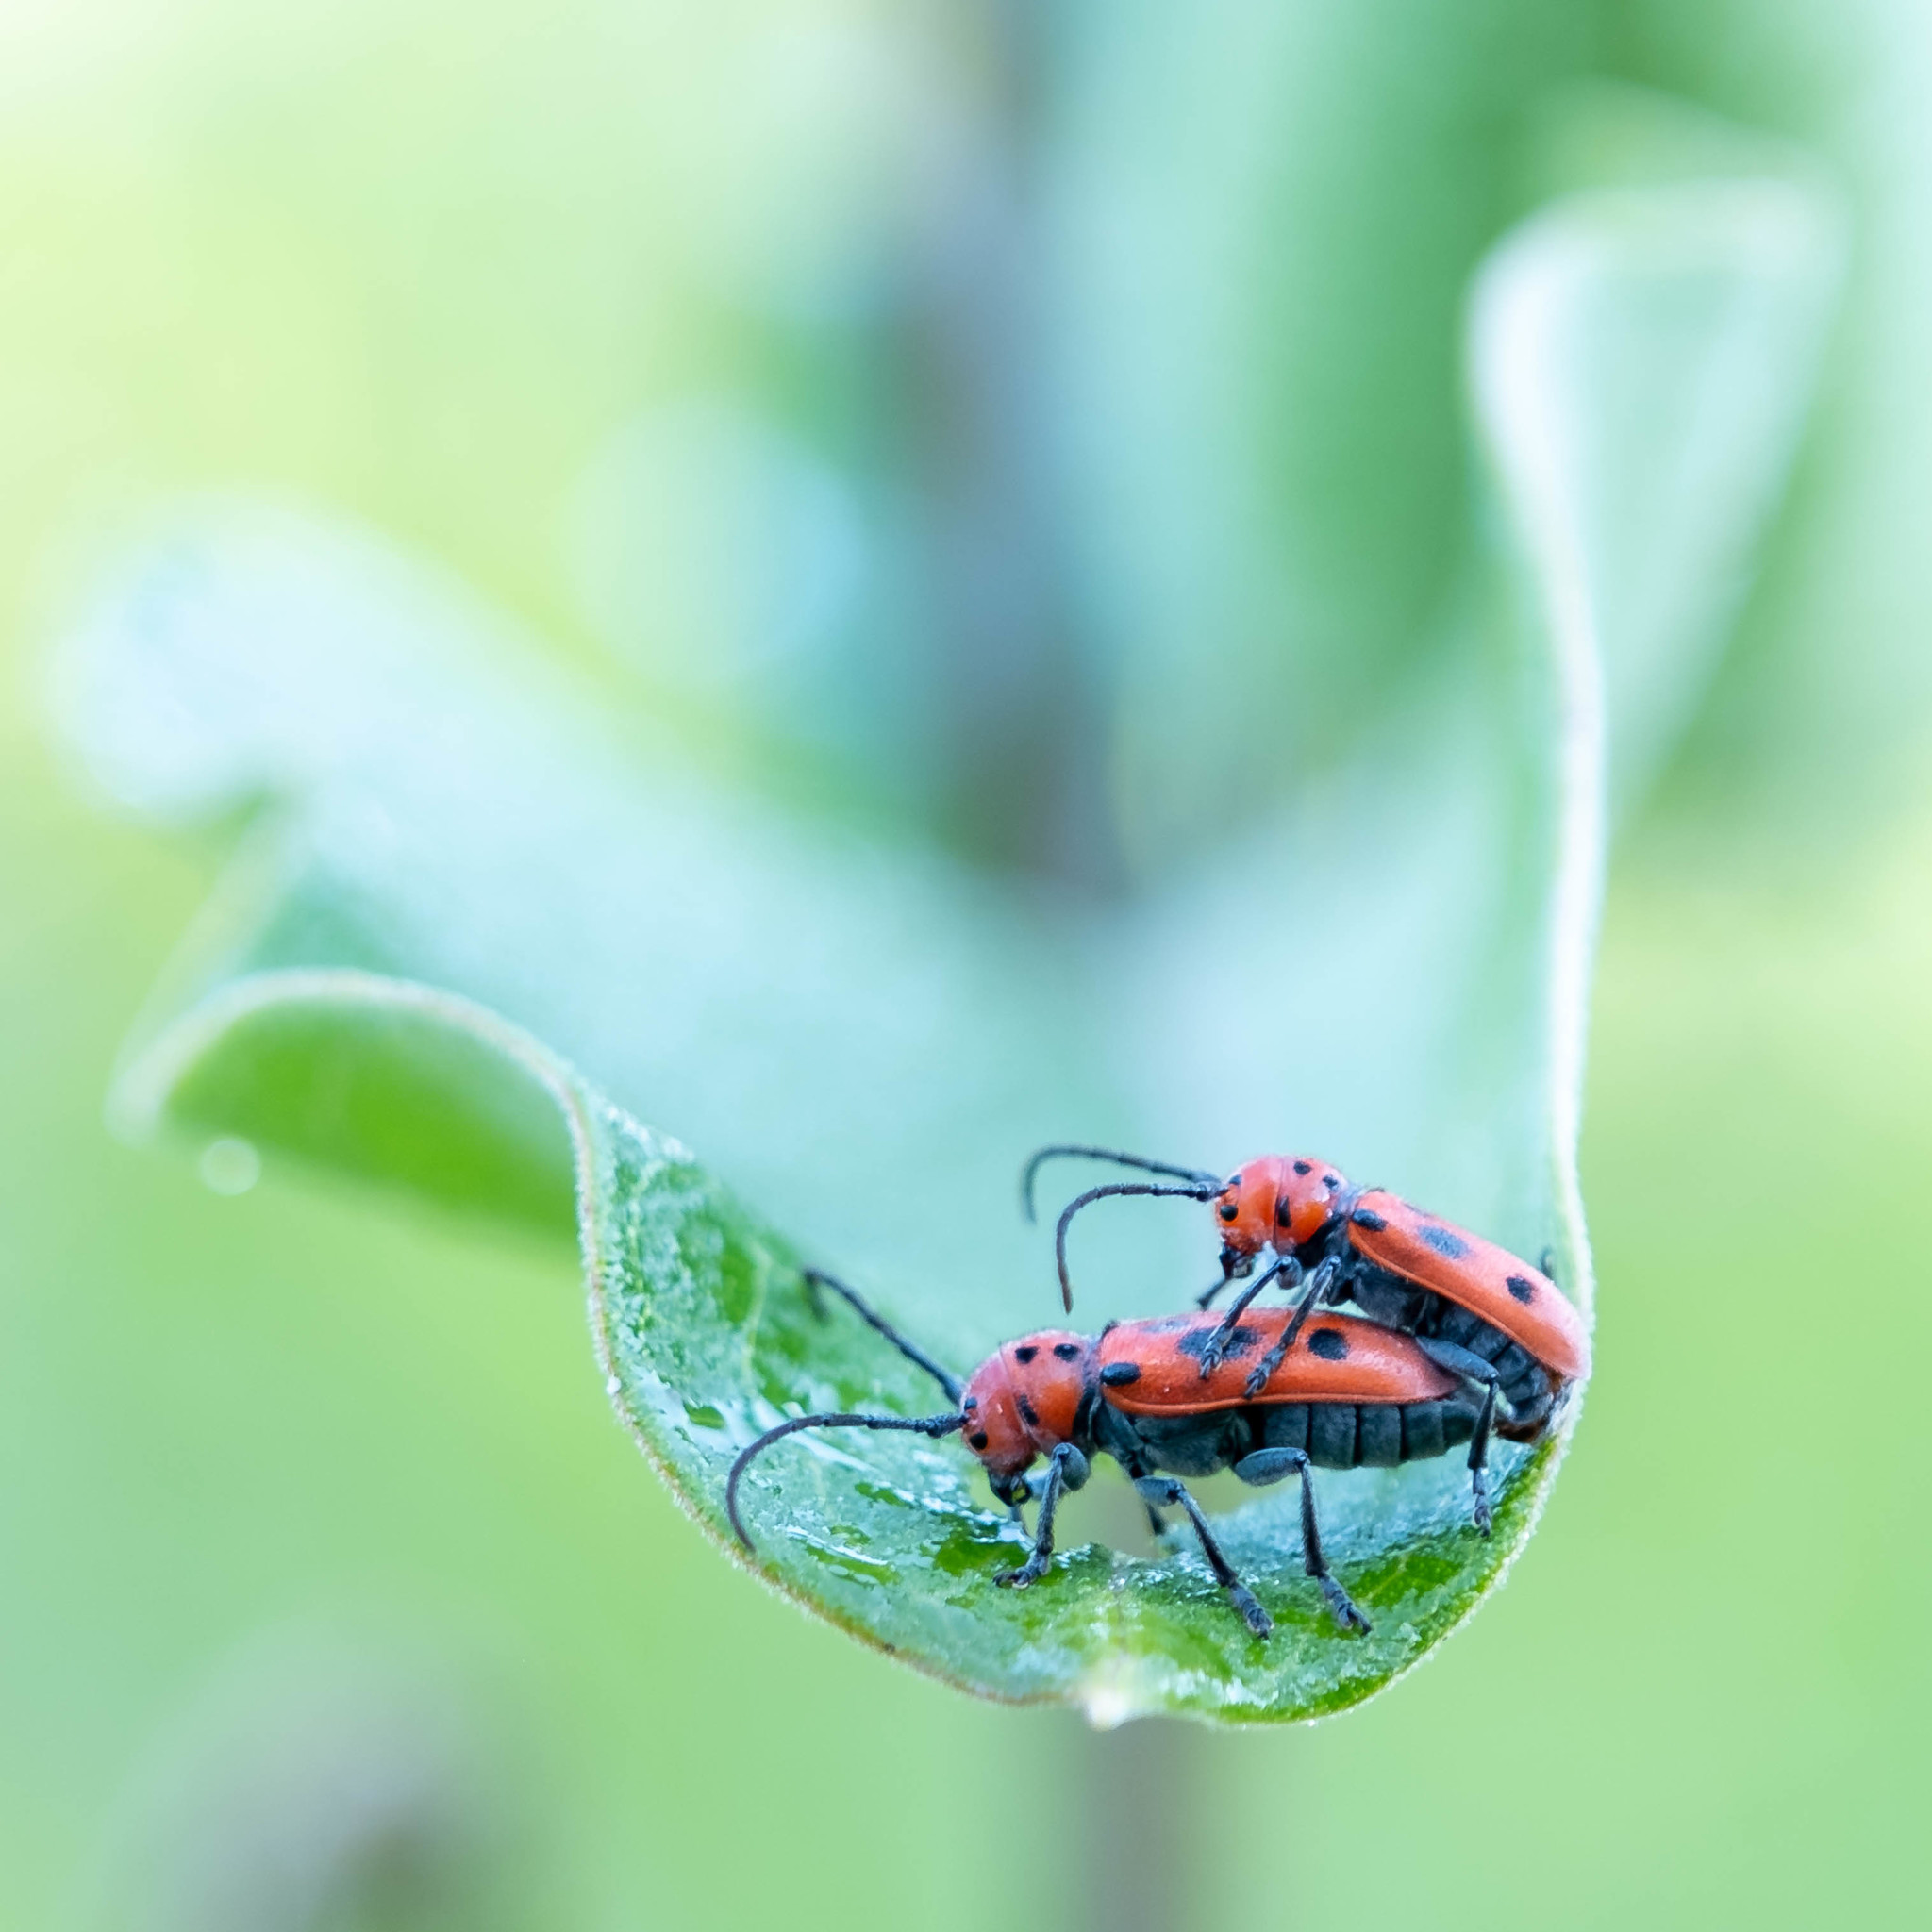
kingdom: Animalia
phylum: Arthropoda
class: Insecta
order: Coleoptera
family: Cerambycidae
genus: Tetraopes
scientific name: Tetraopes tetrophthalmus
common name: Red milkweed beetle
